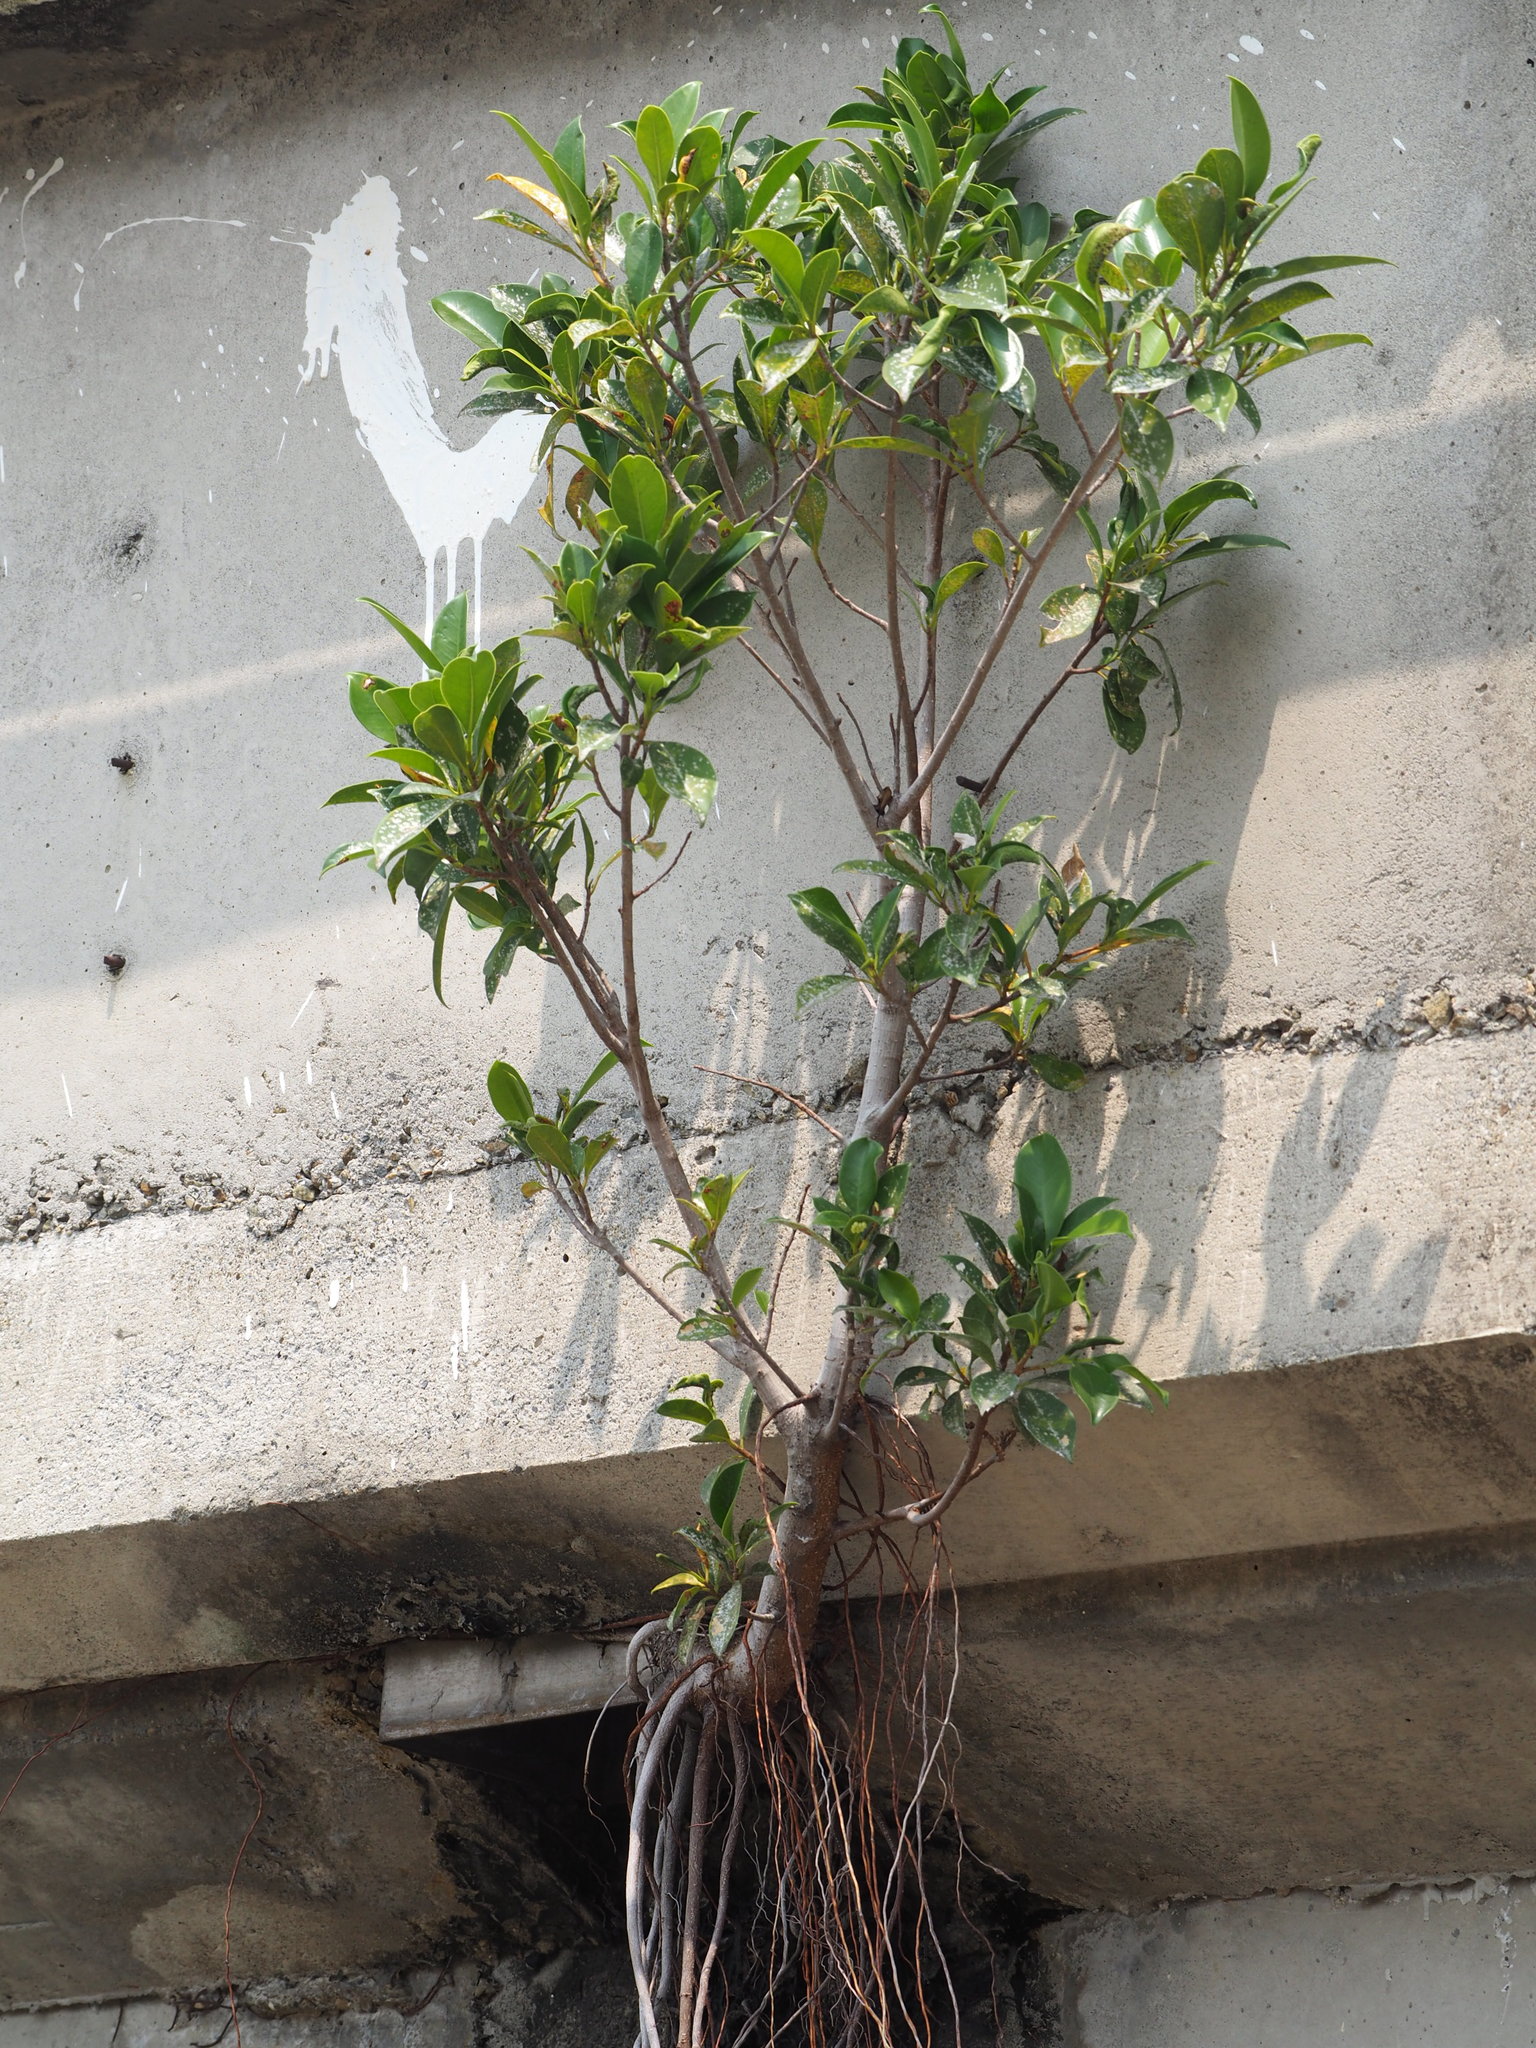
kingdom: Plantae
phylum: Tracheophyta
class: Magnoliopsida
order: Rosales
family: Moraceae
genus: Ficus
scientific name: Ficus microcarpa
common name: Chinese banyan
